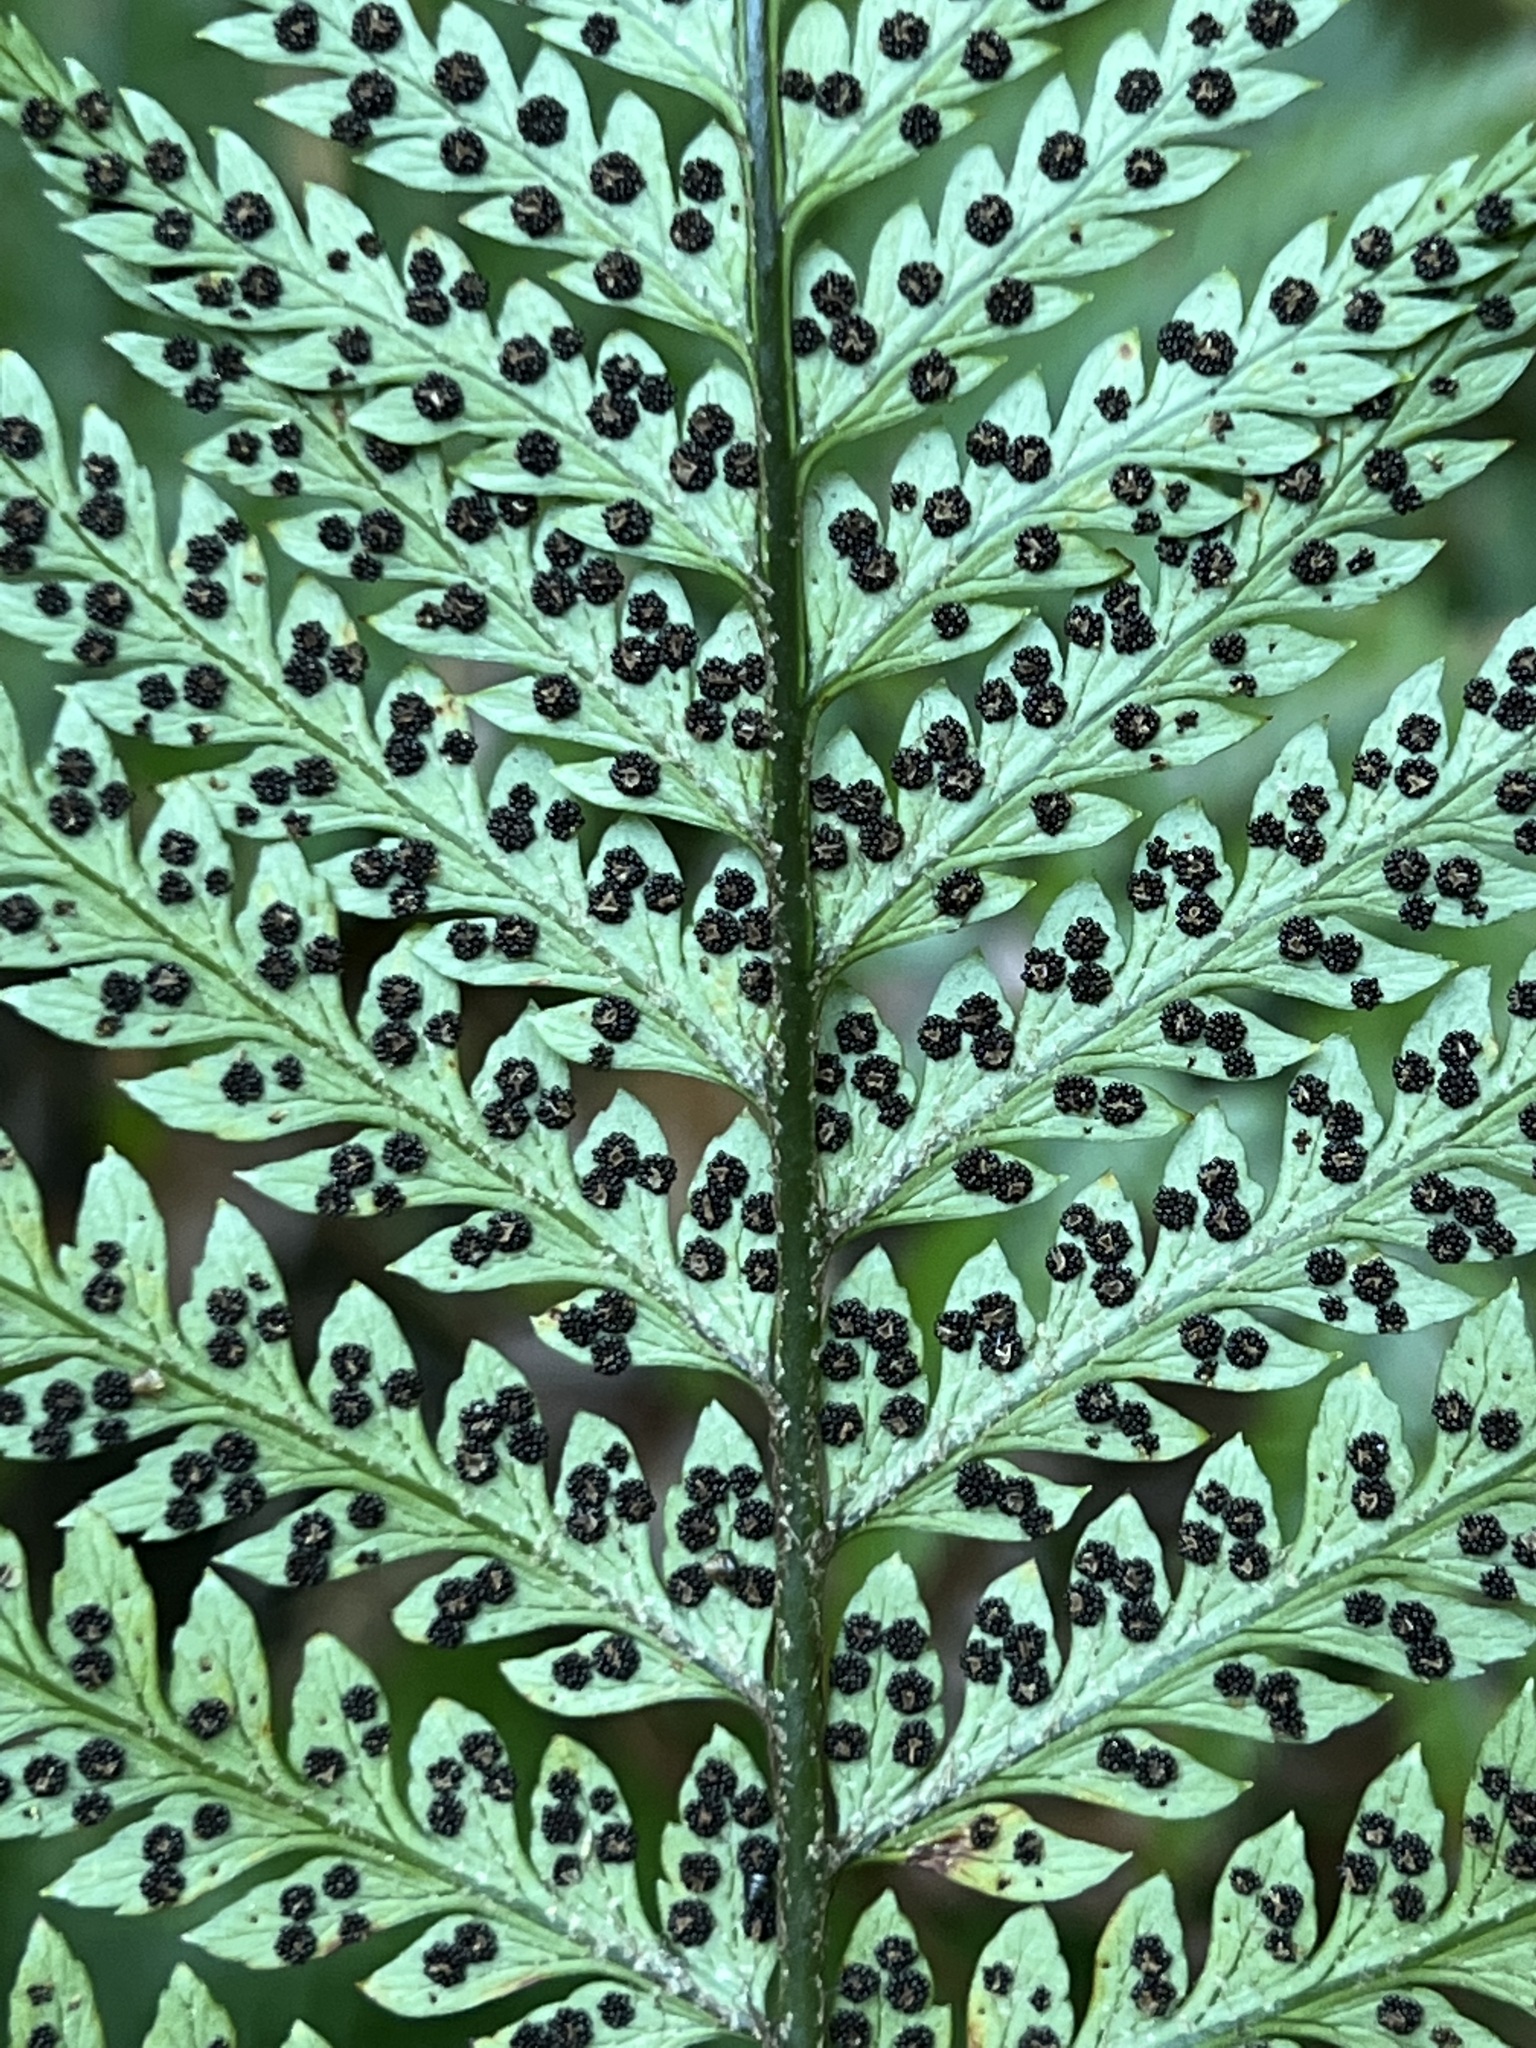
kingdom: Plantae
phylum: Tracheophyta
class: Polypodiopsida
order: Polypodiales
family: Dryopteridaceae
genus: Polystichum
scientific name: Polystichum wawranum
